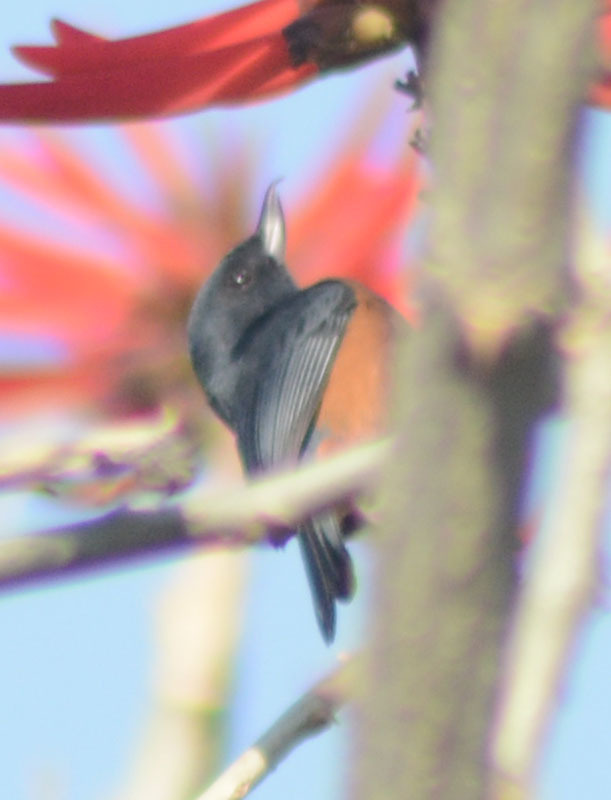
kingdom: Animalia
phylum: Chordata
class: Aves
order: Passeriformes
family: Thraupidae
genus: Diglossa
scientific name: Diglossa baritula
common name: Cinnamon-bellied flowerpiercer
